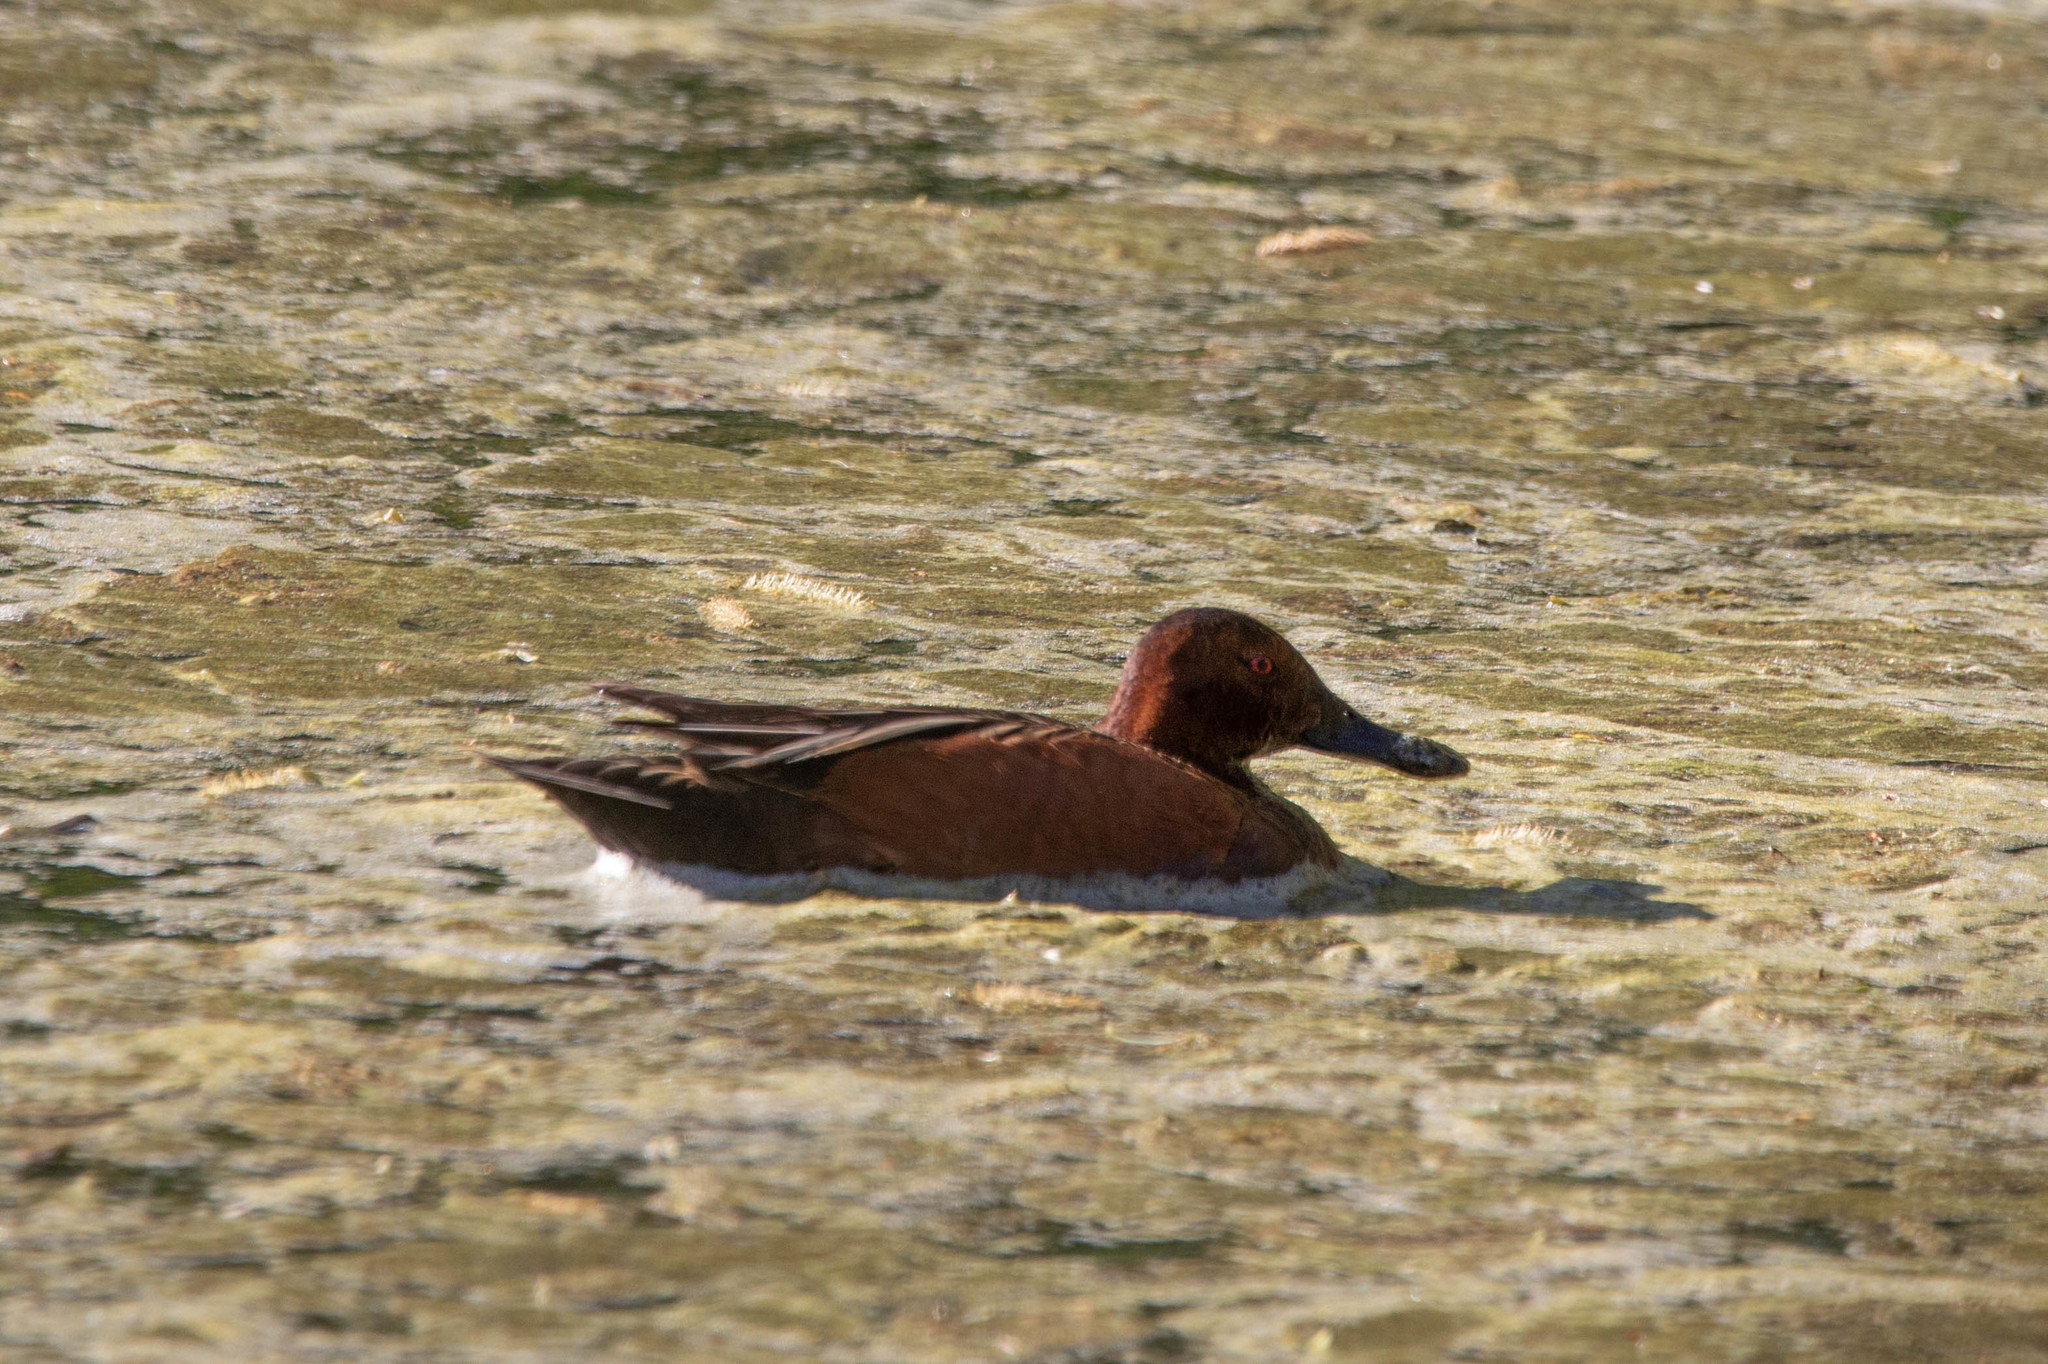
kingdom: Animalia
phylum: Chordata
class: Aves
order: Anseriformes
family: Anatidae
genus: Spatula
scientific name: Spatula cyanoptera
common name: Cinnamon teal
